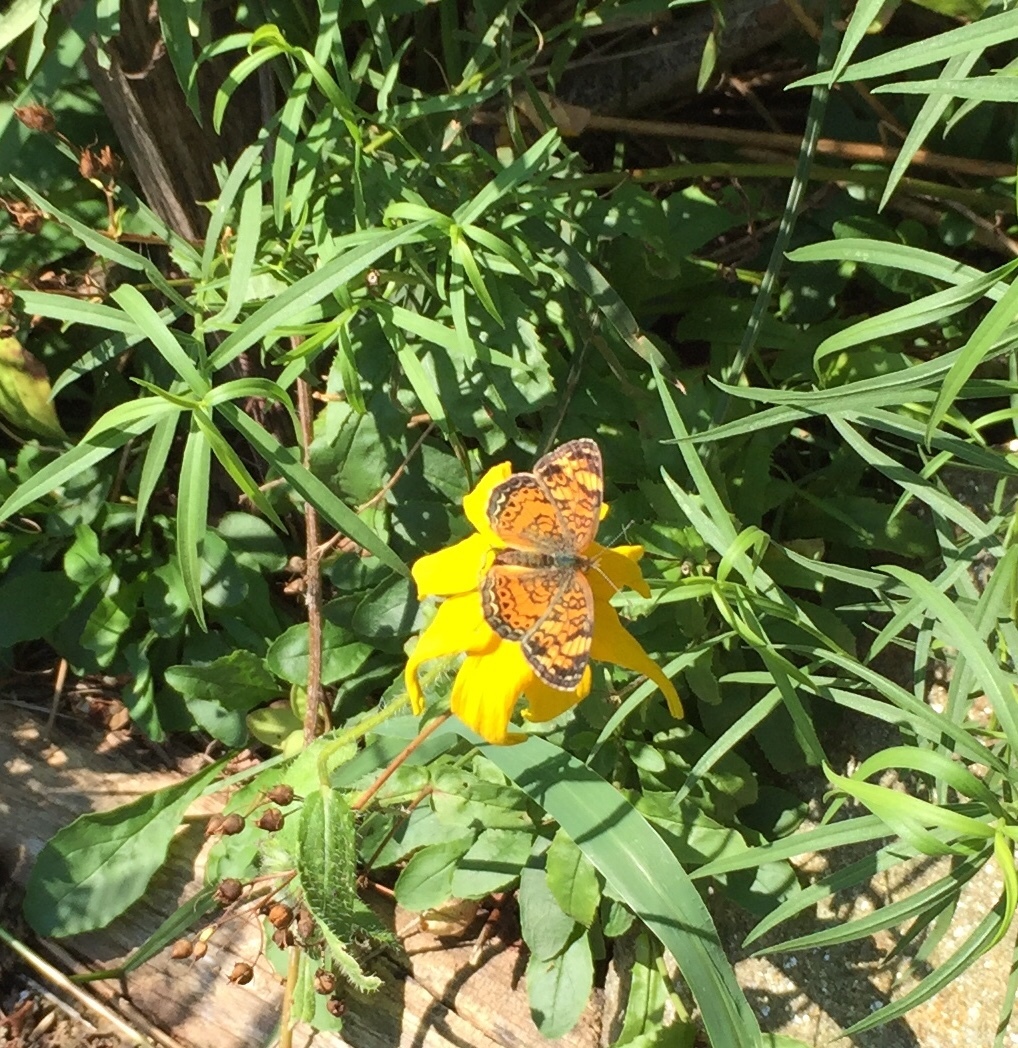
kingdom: Animalia
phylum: Arthropoda
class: Insecta
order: Lepidoptera
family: Nymphalidae
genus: Phyciodes
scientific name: Phyciodes tharos
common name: Pearl crescent
